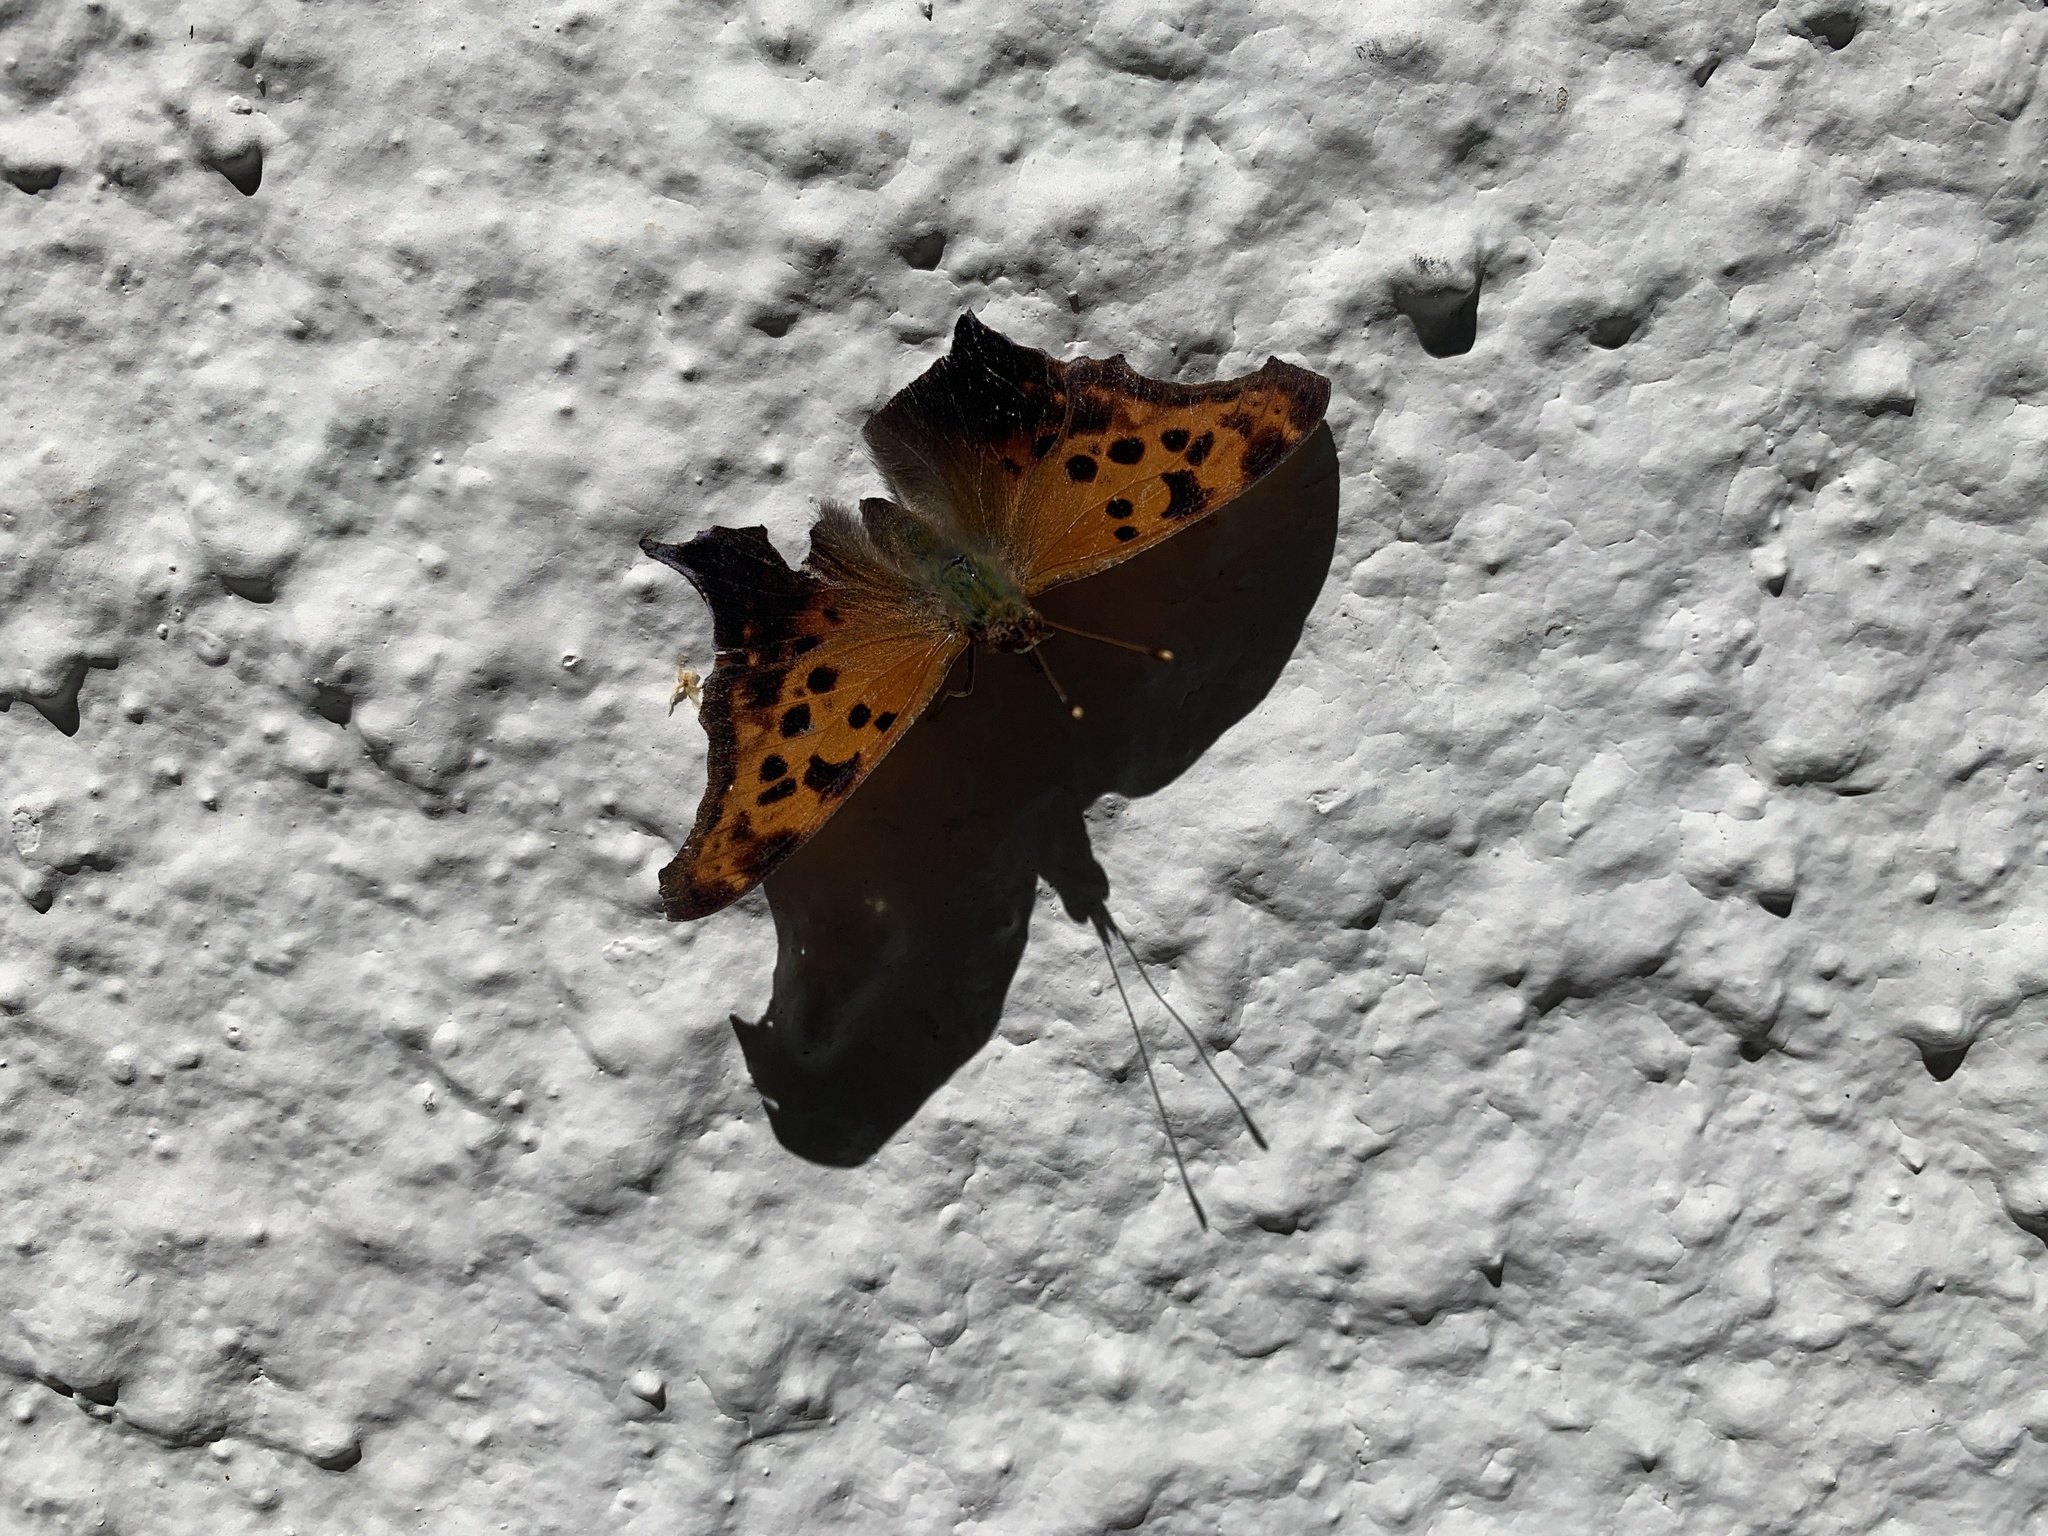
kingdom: Animalia
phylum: Arthropoda
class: Insecta
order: Lepidoptera
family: Nymphalidae
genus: Polygonia
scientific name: Polygonia interrogationis
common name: Question mark
